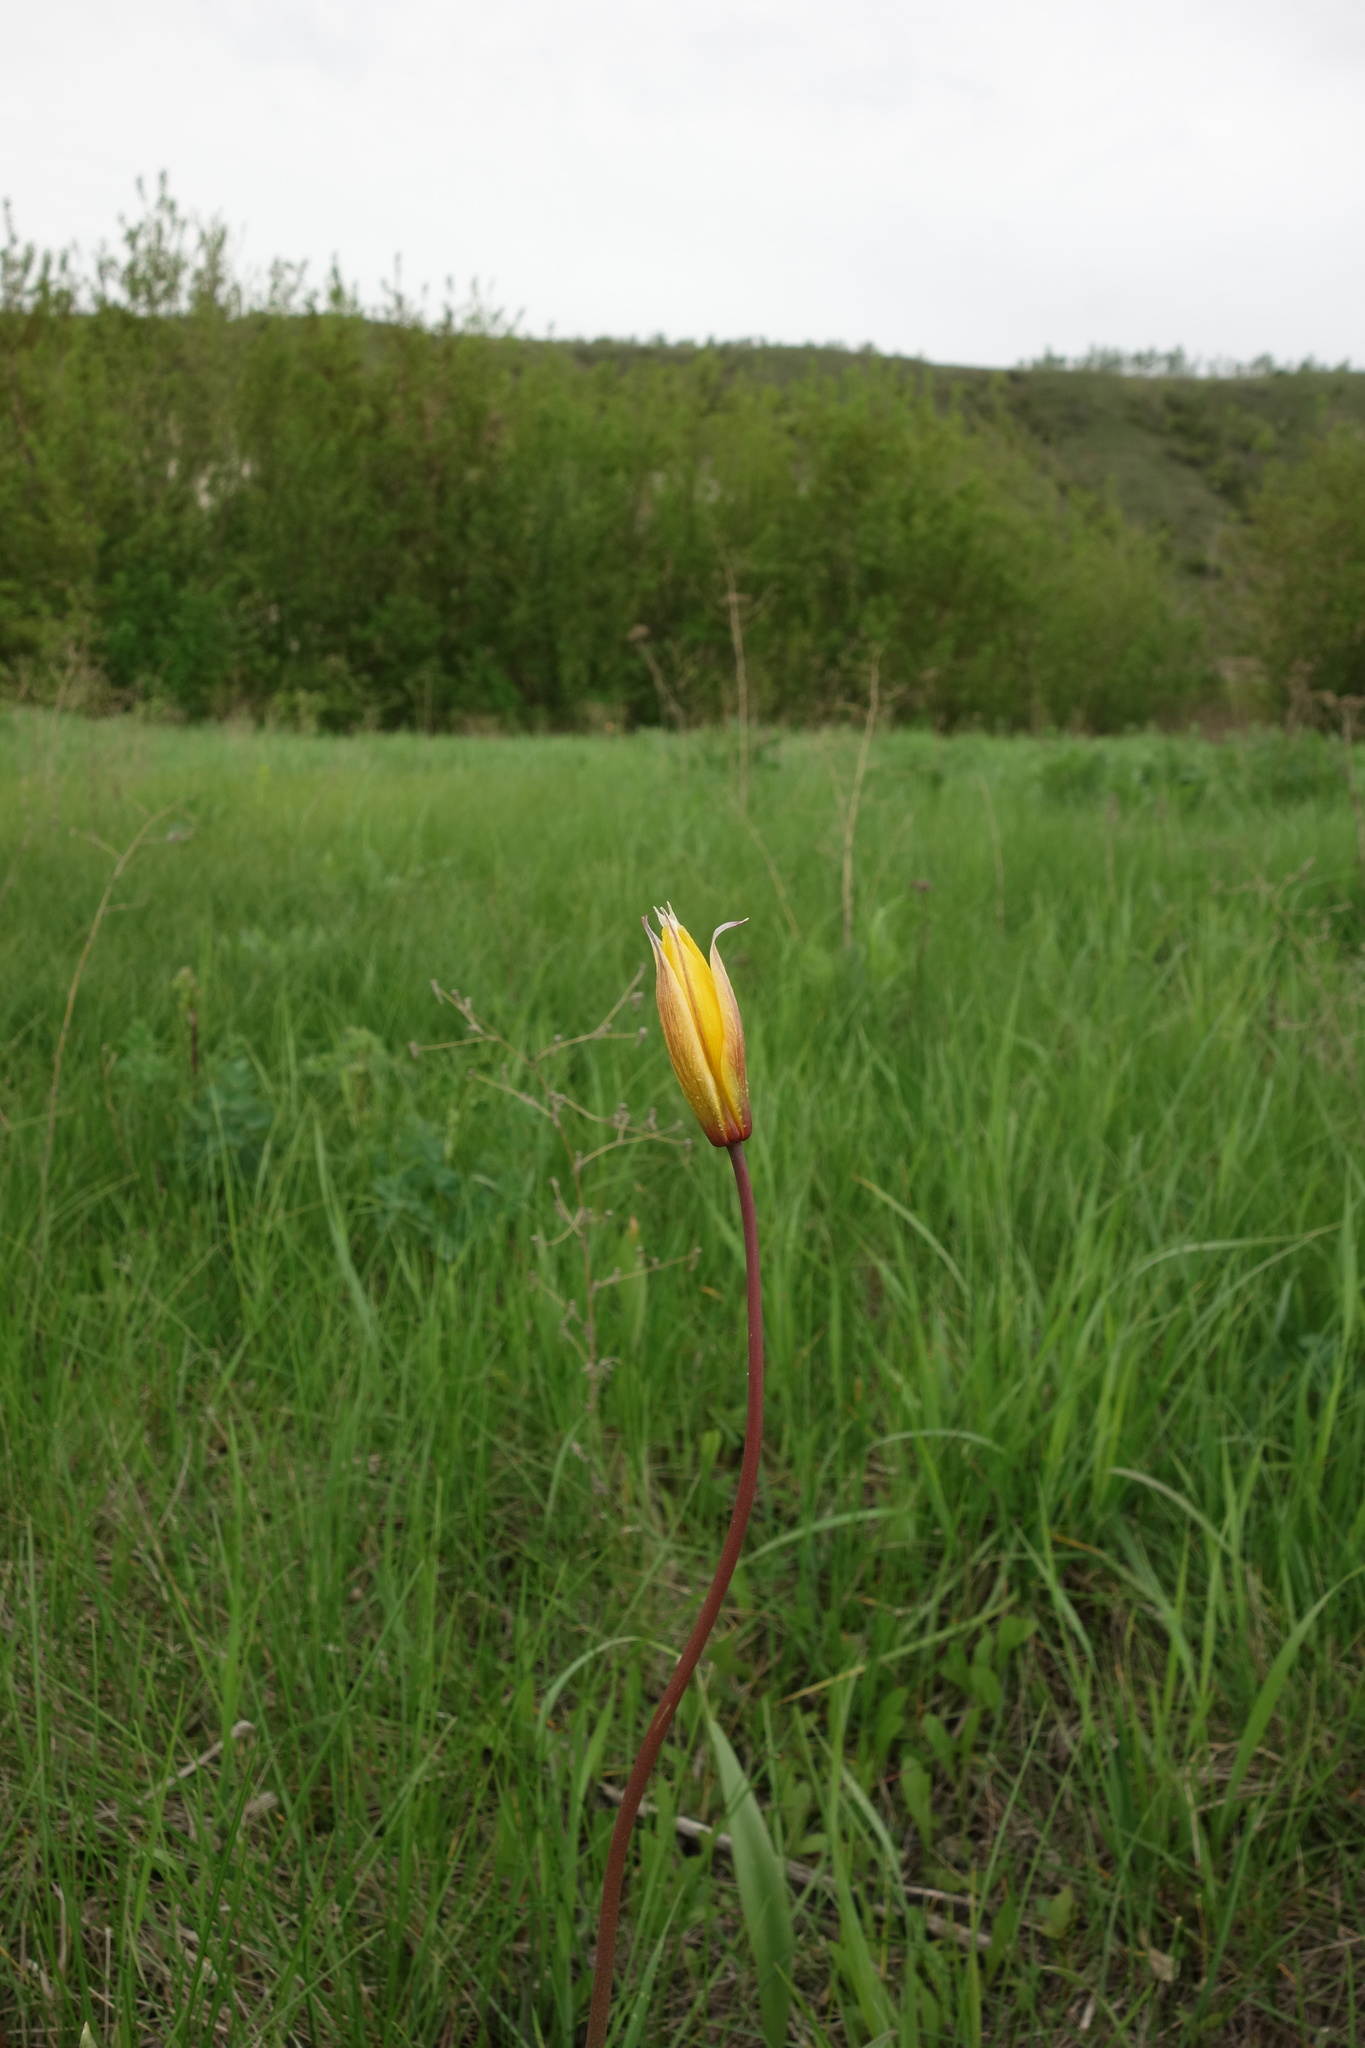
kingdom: Plantae
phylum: Tracheophyta
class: Liliopsida
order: Liliales
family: Liliaceae
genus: Tulipa
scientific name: Tulipa sylvestris
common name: Wild tulip
